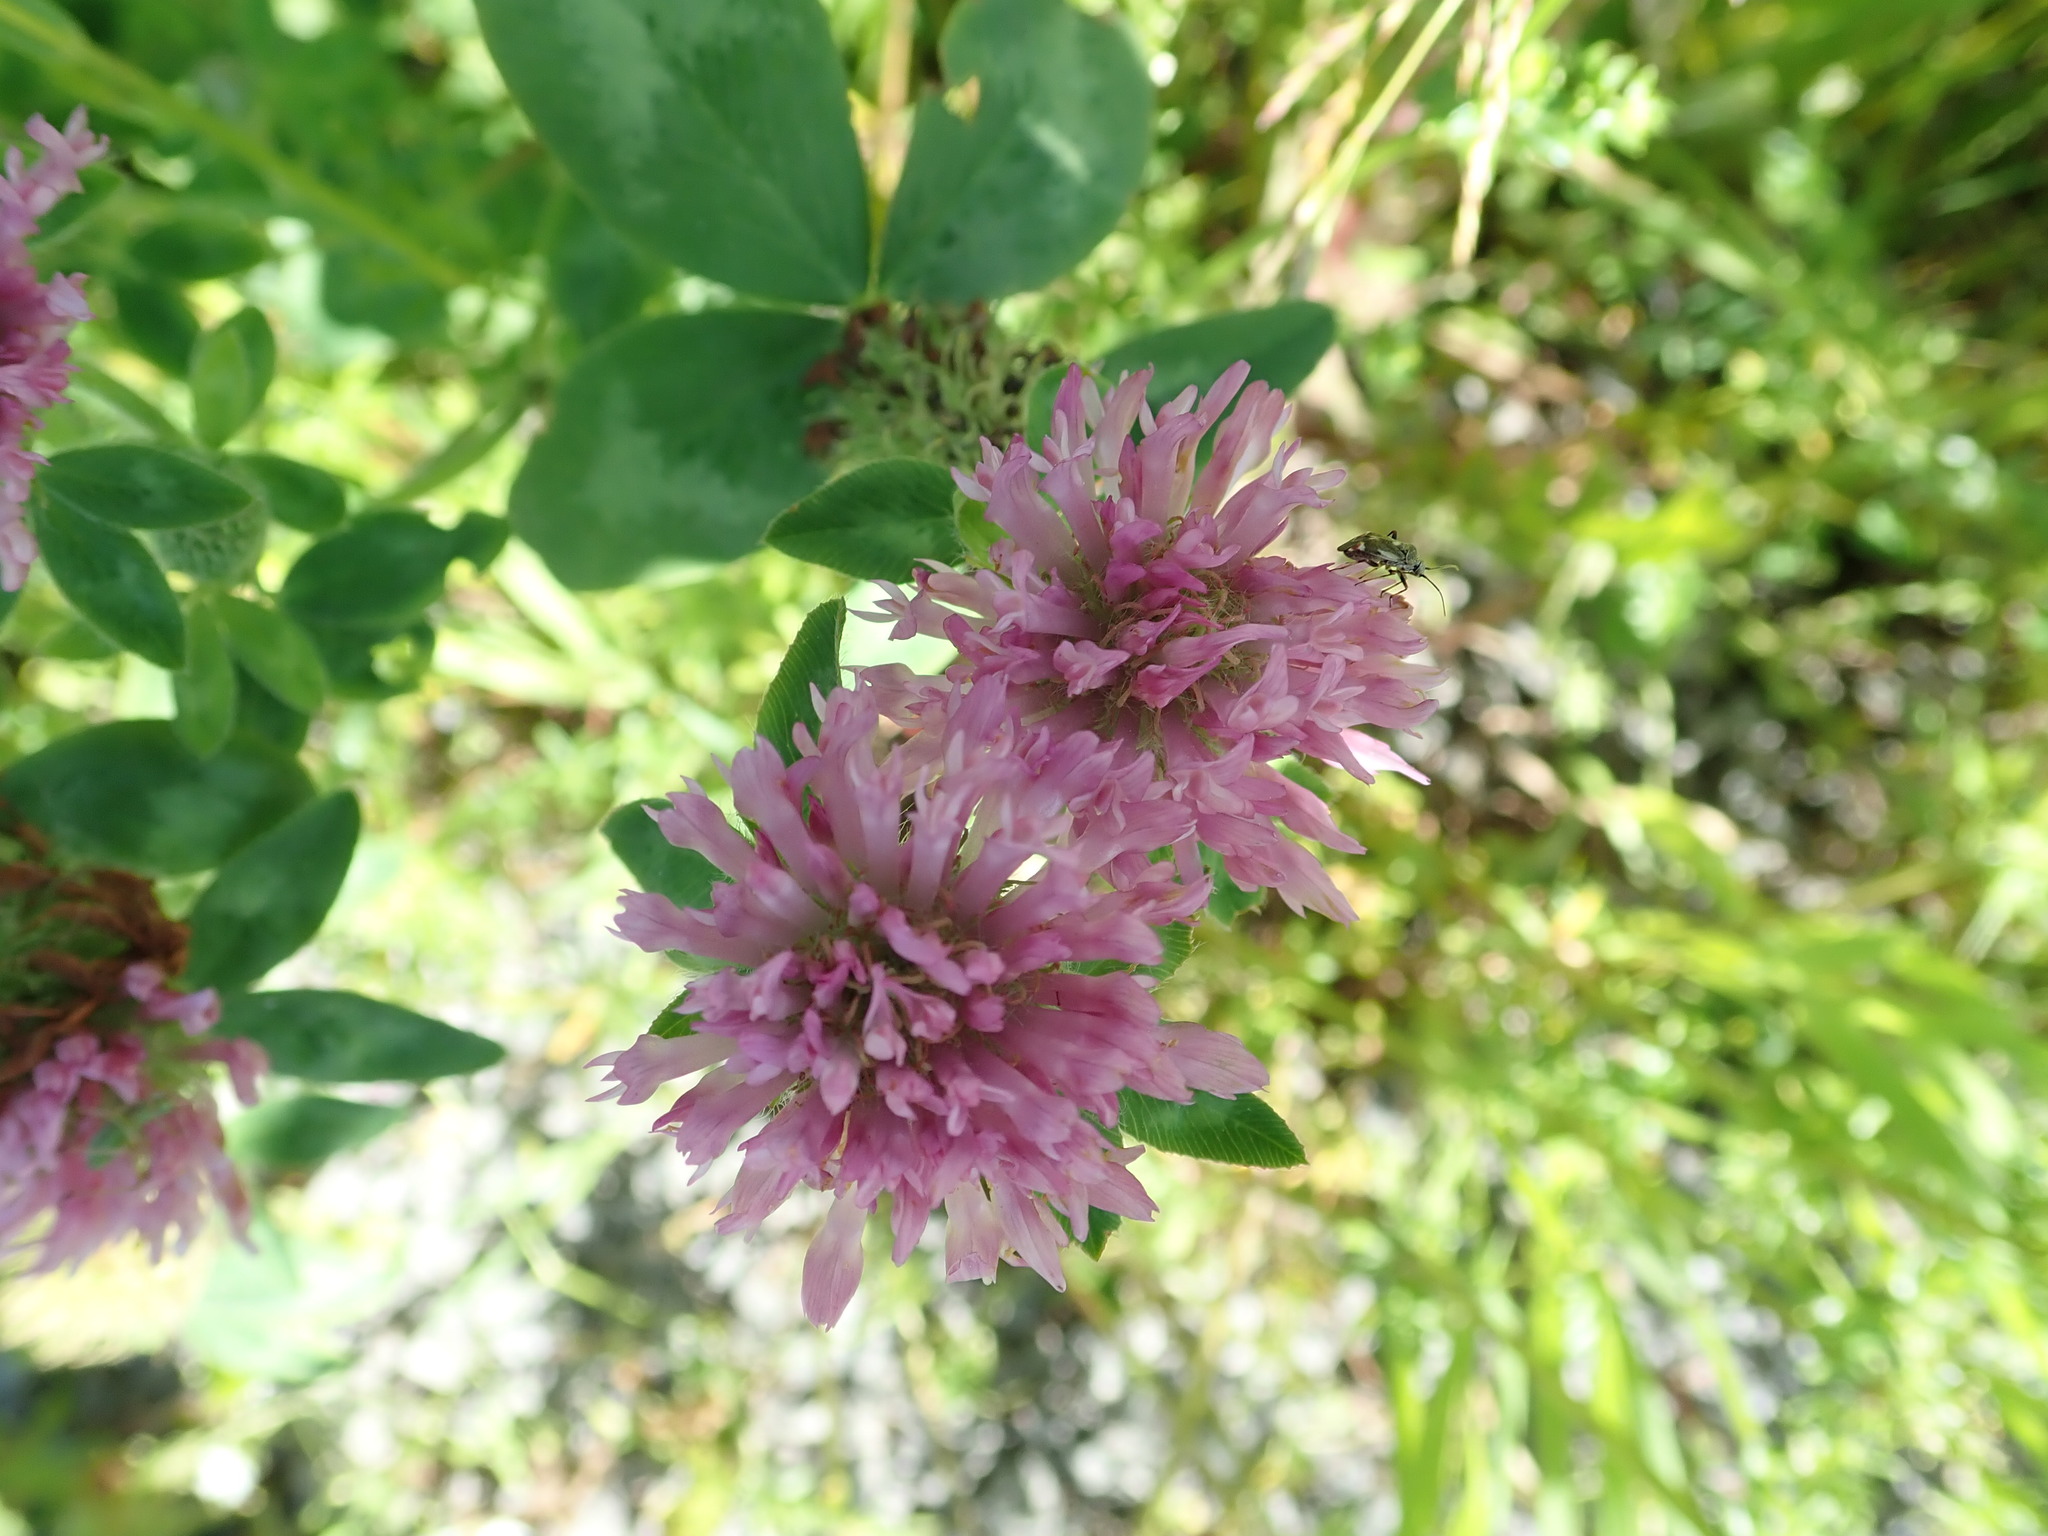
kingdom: Plantae
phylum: Tracheophyta
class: Magnoliopsida
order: Fabales
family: Fabaceae
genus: Trifolium
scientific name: Trifolium pratense
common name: Red clover
